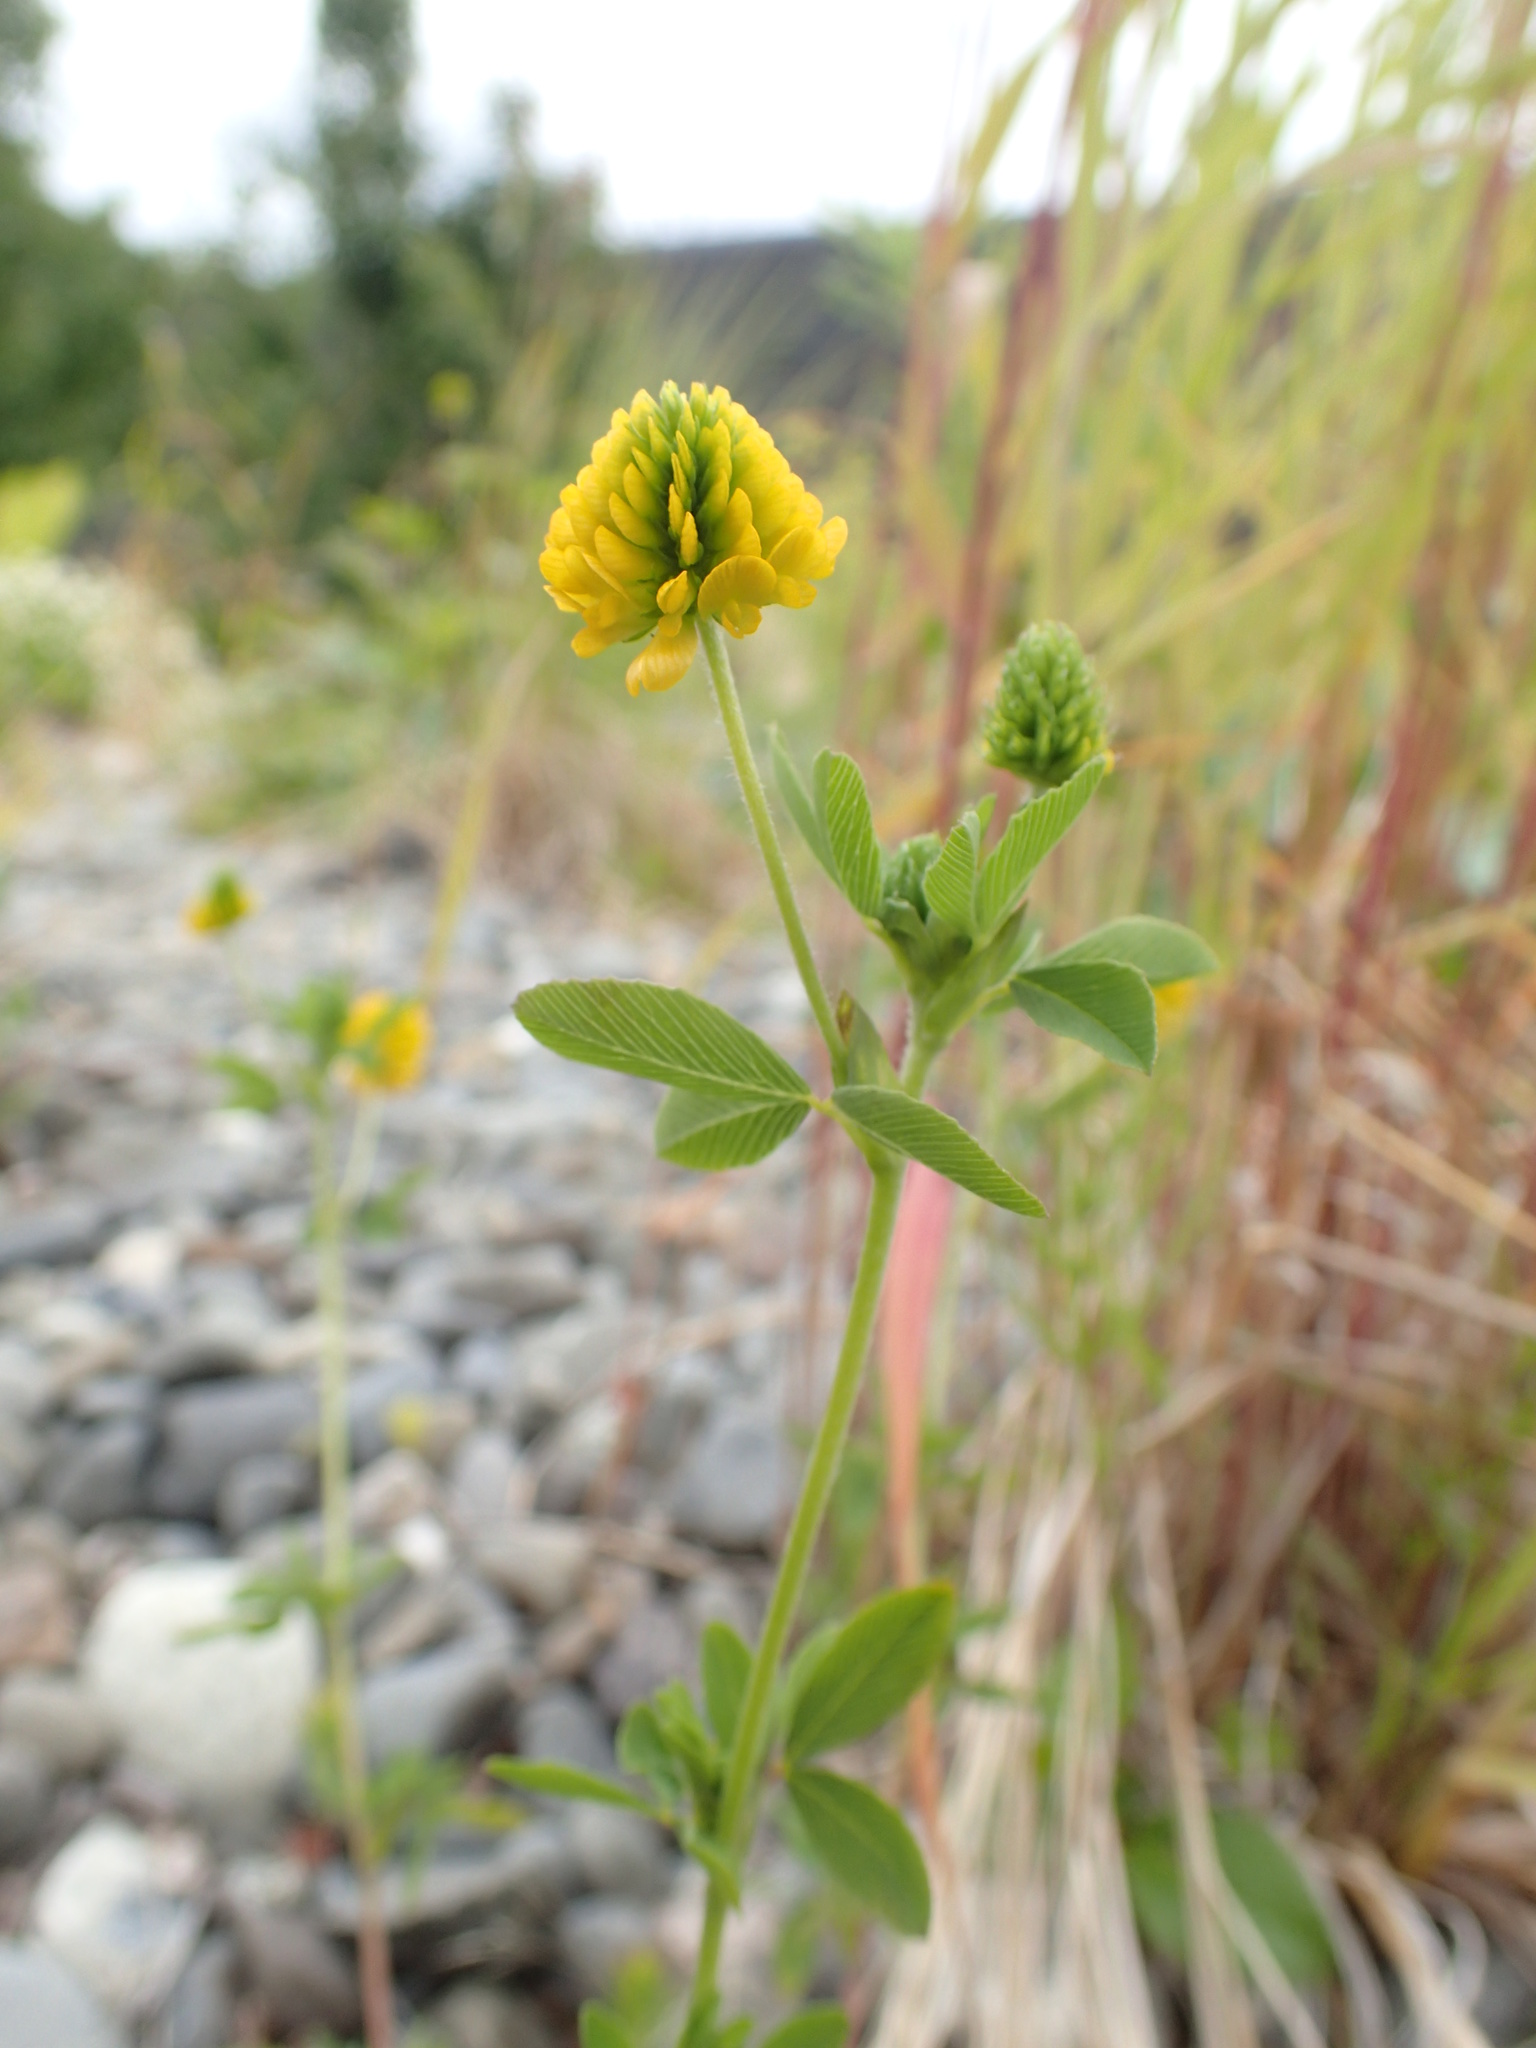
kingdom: Plantae
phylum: Tracheophyta
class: Magnoliopsida
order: Fabales
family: Fabaceae
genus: Trifolium
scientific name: Trifolium aureum
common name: Golden clover
